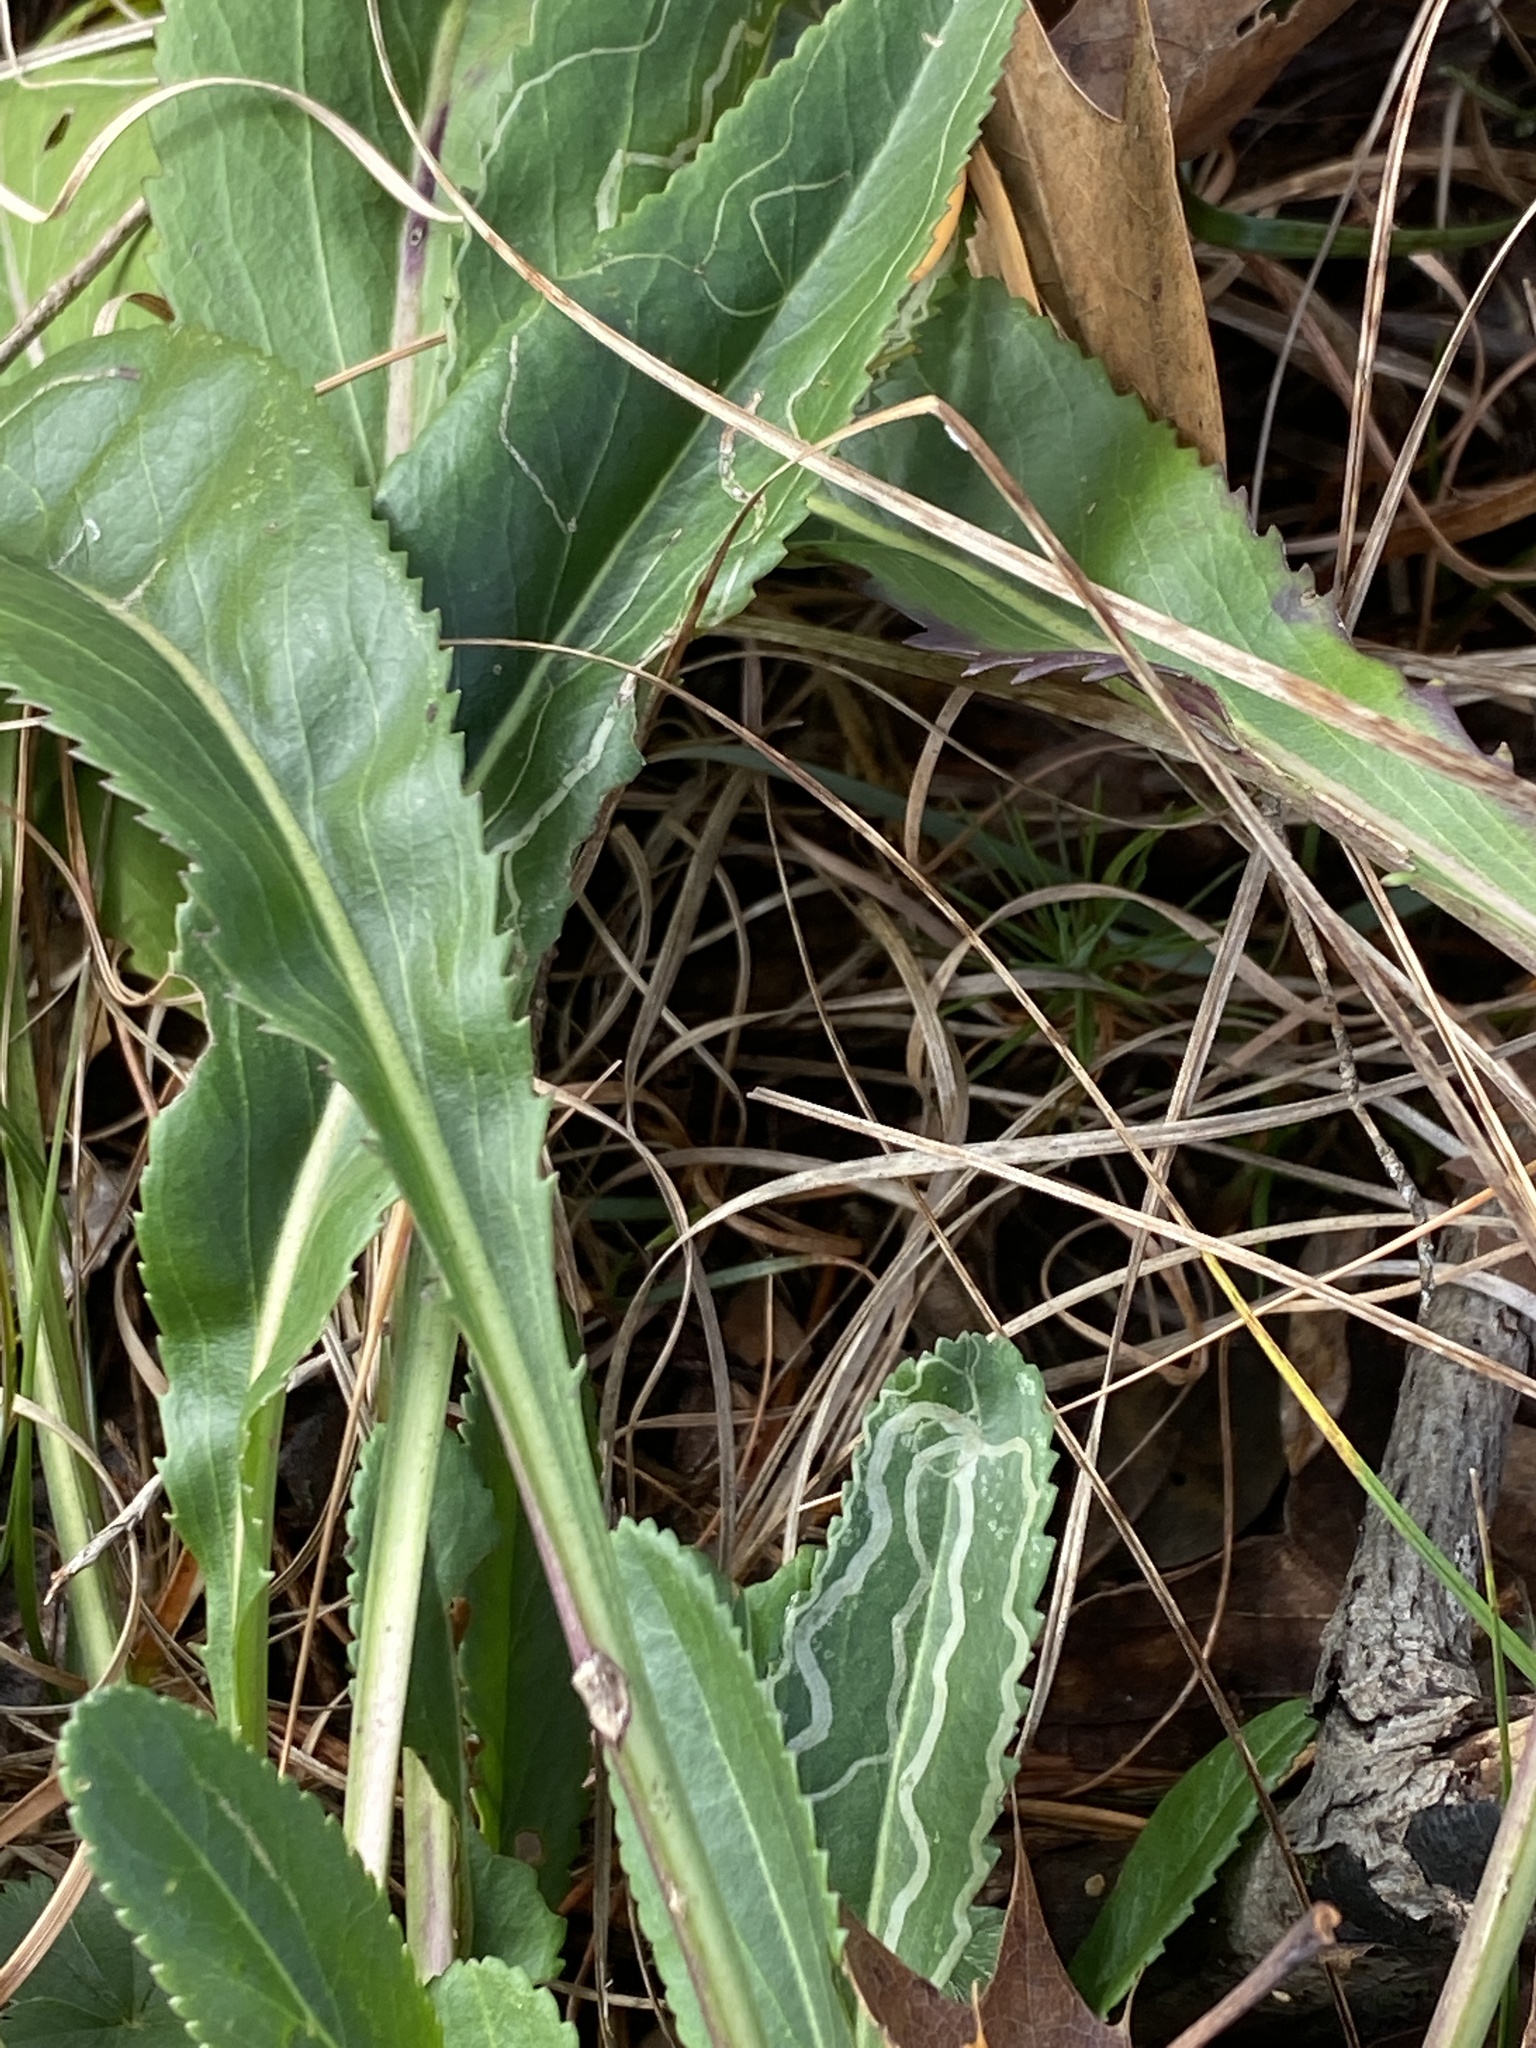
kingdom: Plantae
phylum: Tracheophyta
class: Magnoliopsida
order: Asterales
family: Asteraceae
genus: Packera
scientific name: Packera anonyma
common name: Small ragwort
